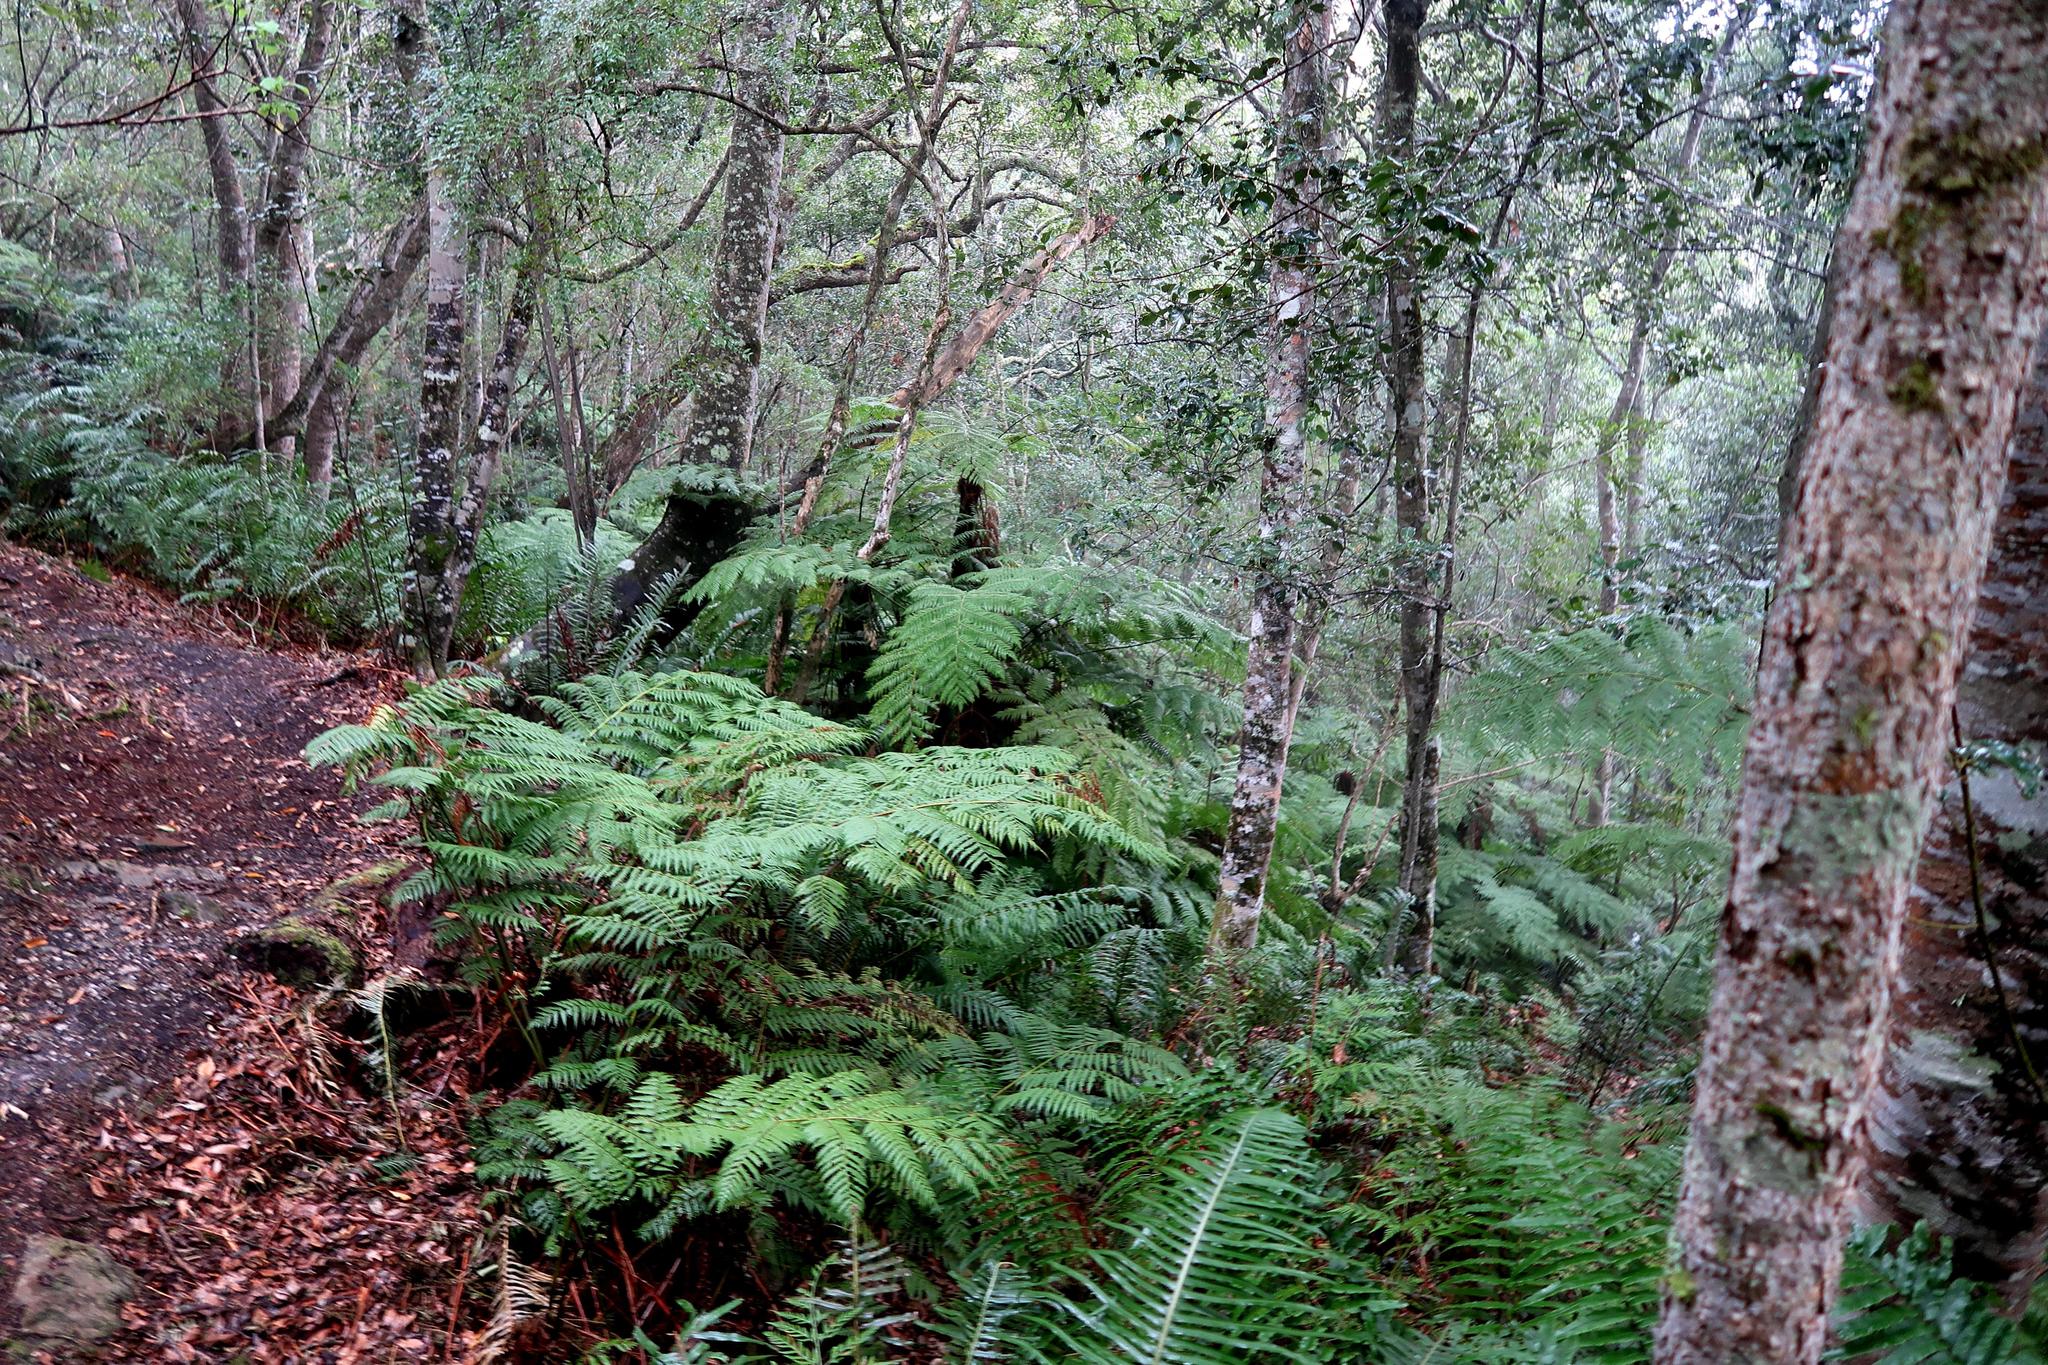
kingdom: Plantae
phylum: Tracheophyta
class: Polypodiopsida
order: Cyatheales
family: Cyatheaceae
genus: Gymnosphaera
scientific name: Gymnosphaera capensis
